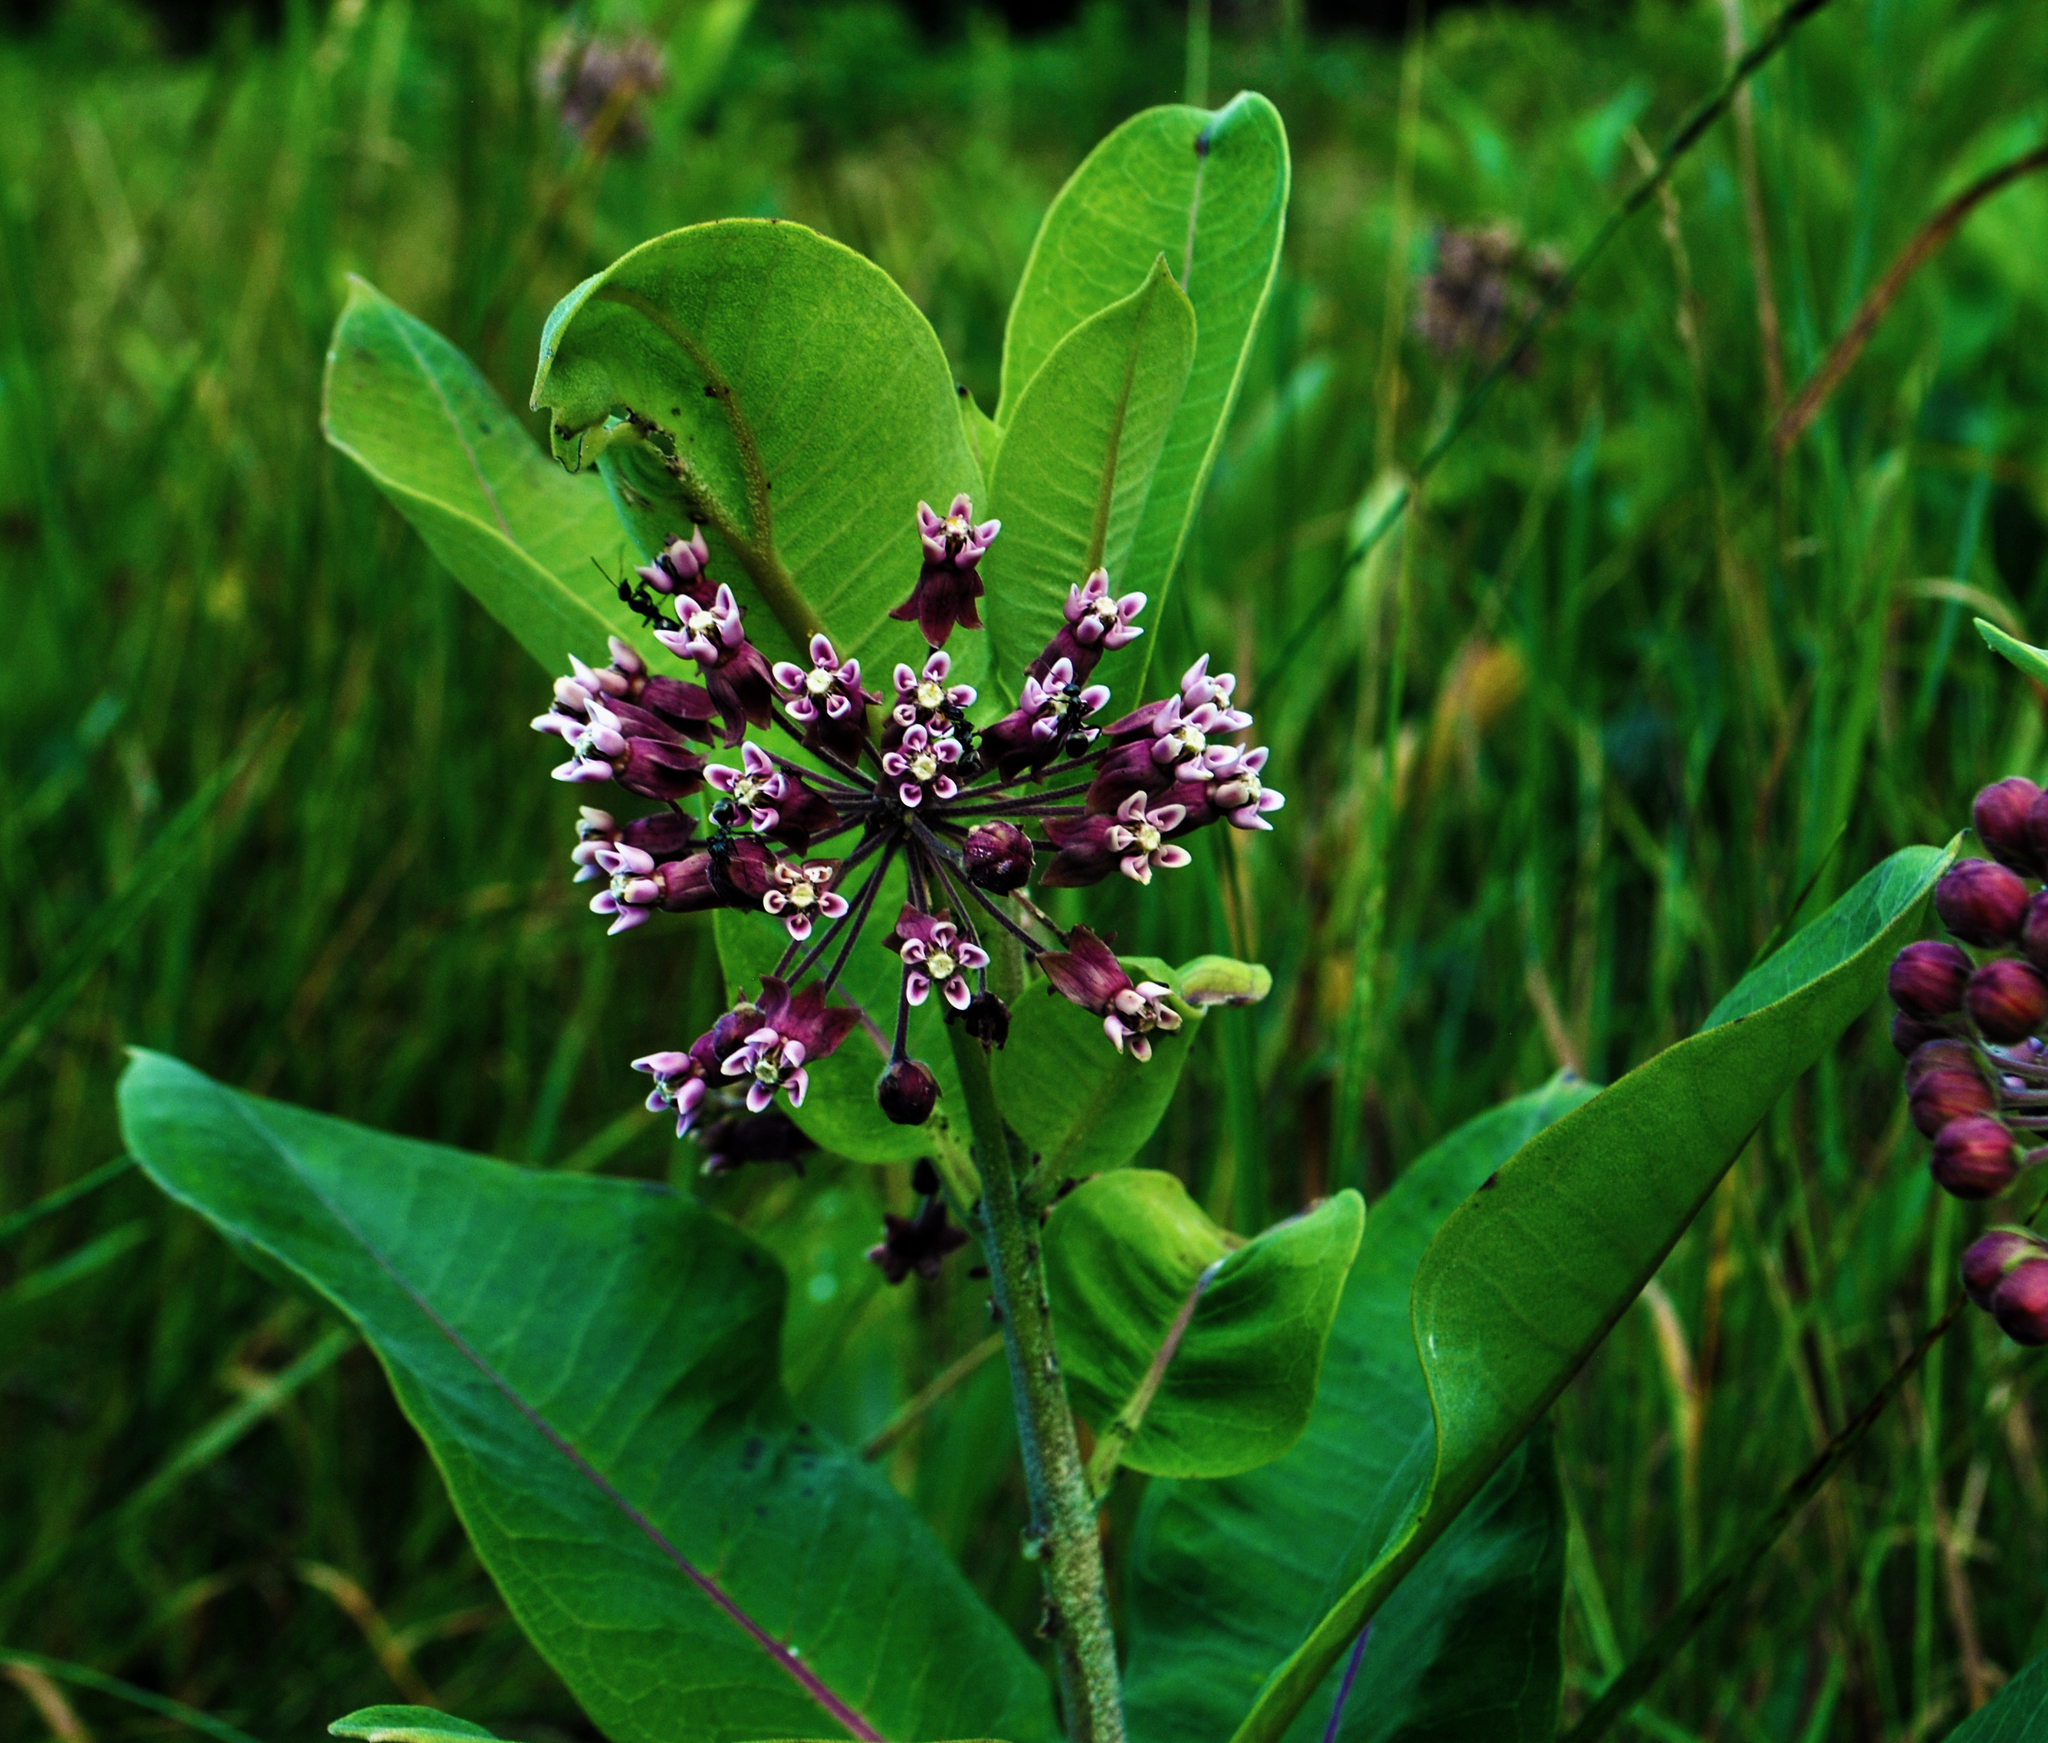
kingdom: Plantae
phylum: Tracheophyta
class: Magnoliopsida
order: Gentianales
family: Apocynaceae
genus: Asclepias
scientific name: Asclepias syriaca
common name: Common milkweed
